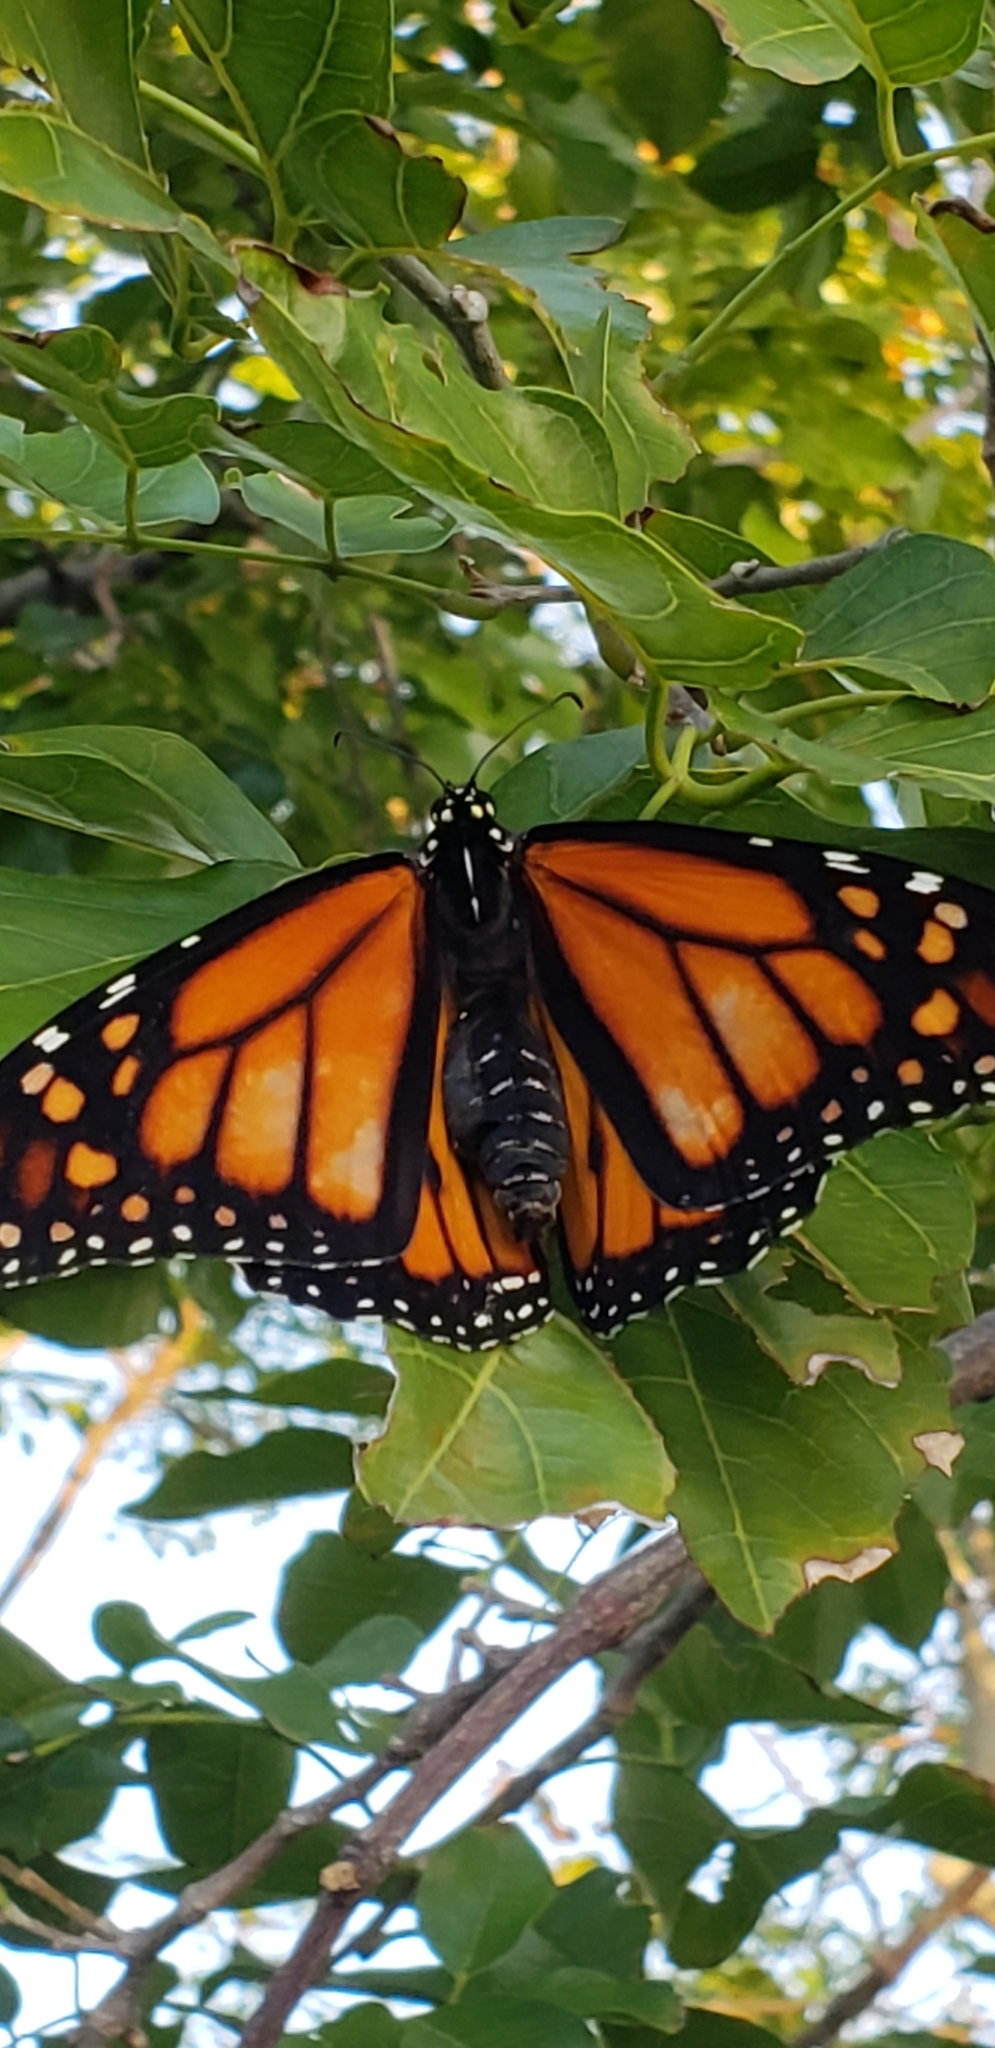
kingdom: Animalia
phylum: Arthropoda
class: Insecta
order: Lepidoptera
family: Nymphalidae
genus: Danaus
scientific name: Danaus plexippus
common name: Monarch
